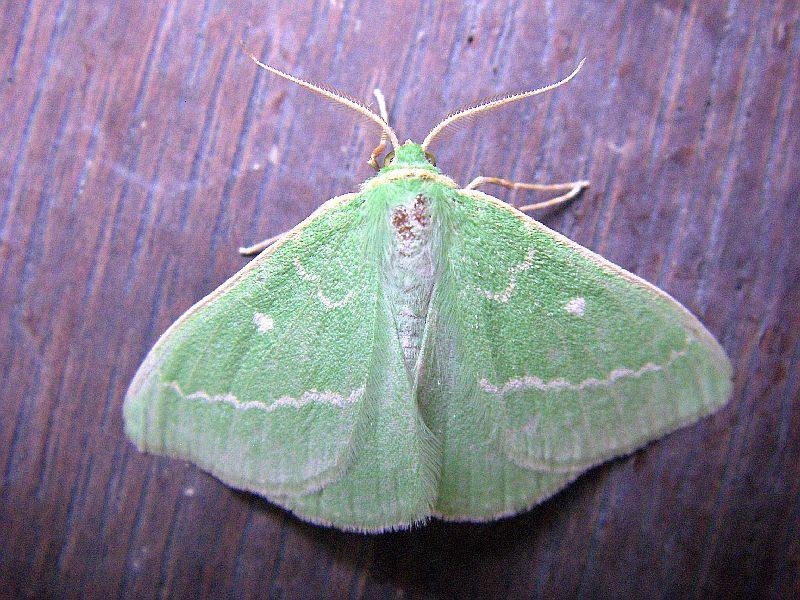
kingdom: Animalia
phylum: Arthropoda
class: Insecta
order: Lepidoptera
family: Geometridae
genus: Thetidia
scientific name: Thetidia smaragdaria
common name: Essex emerald
